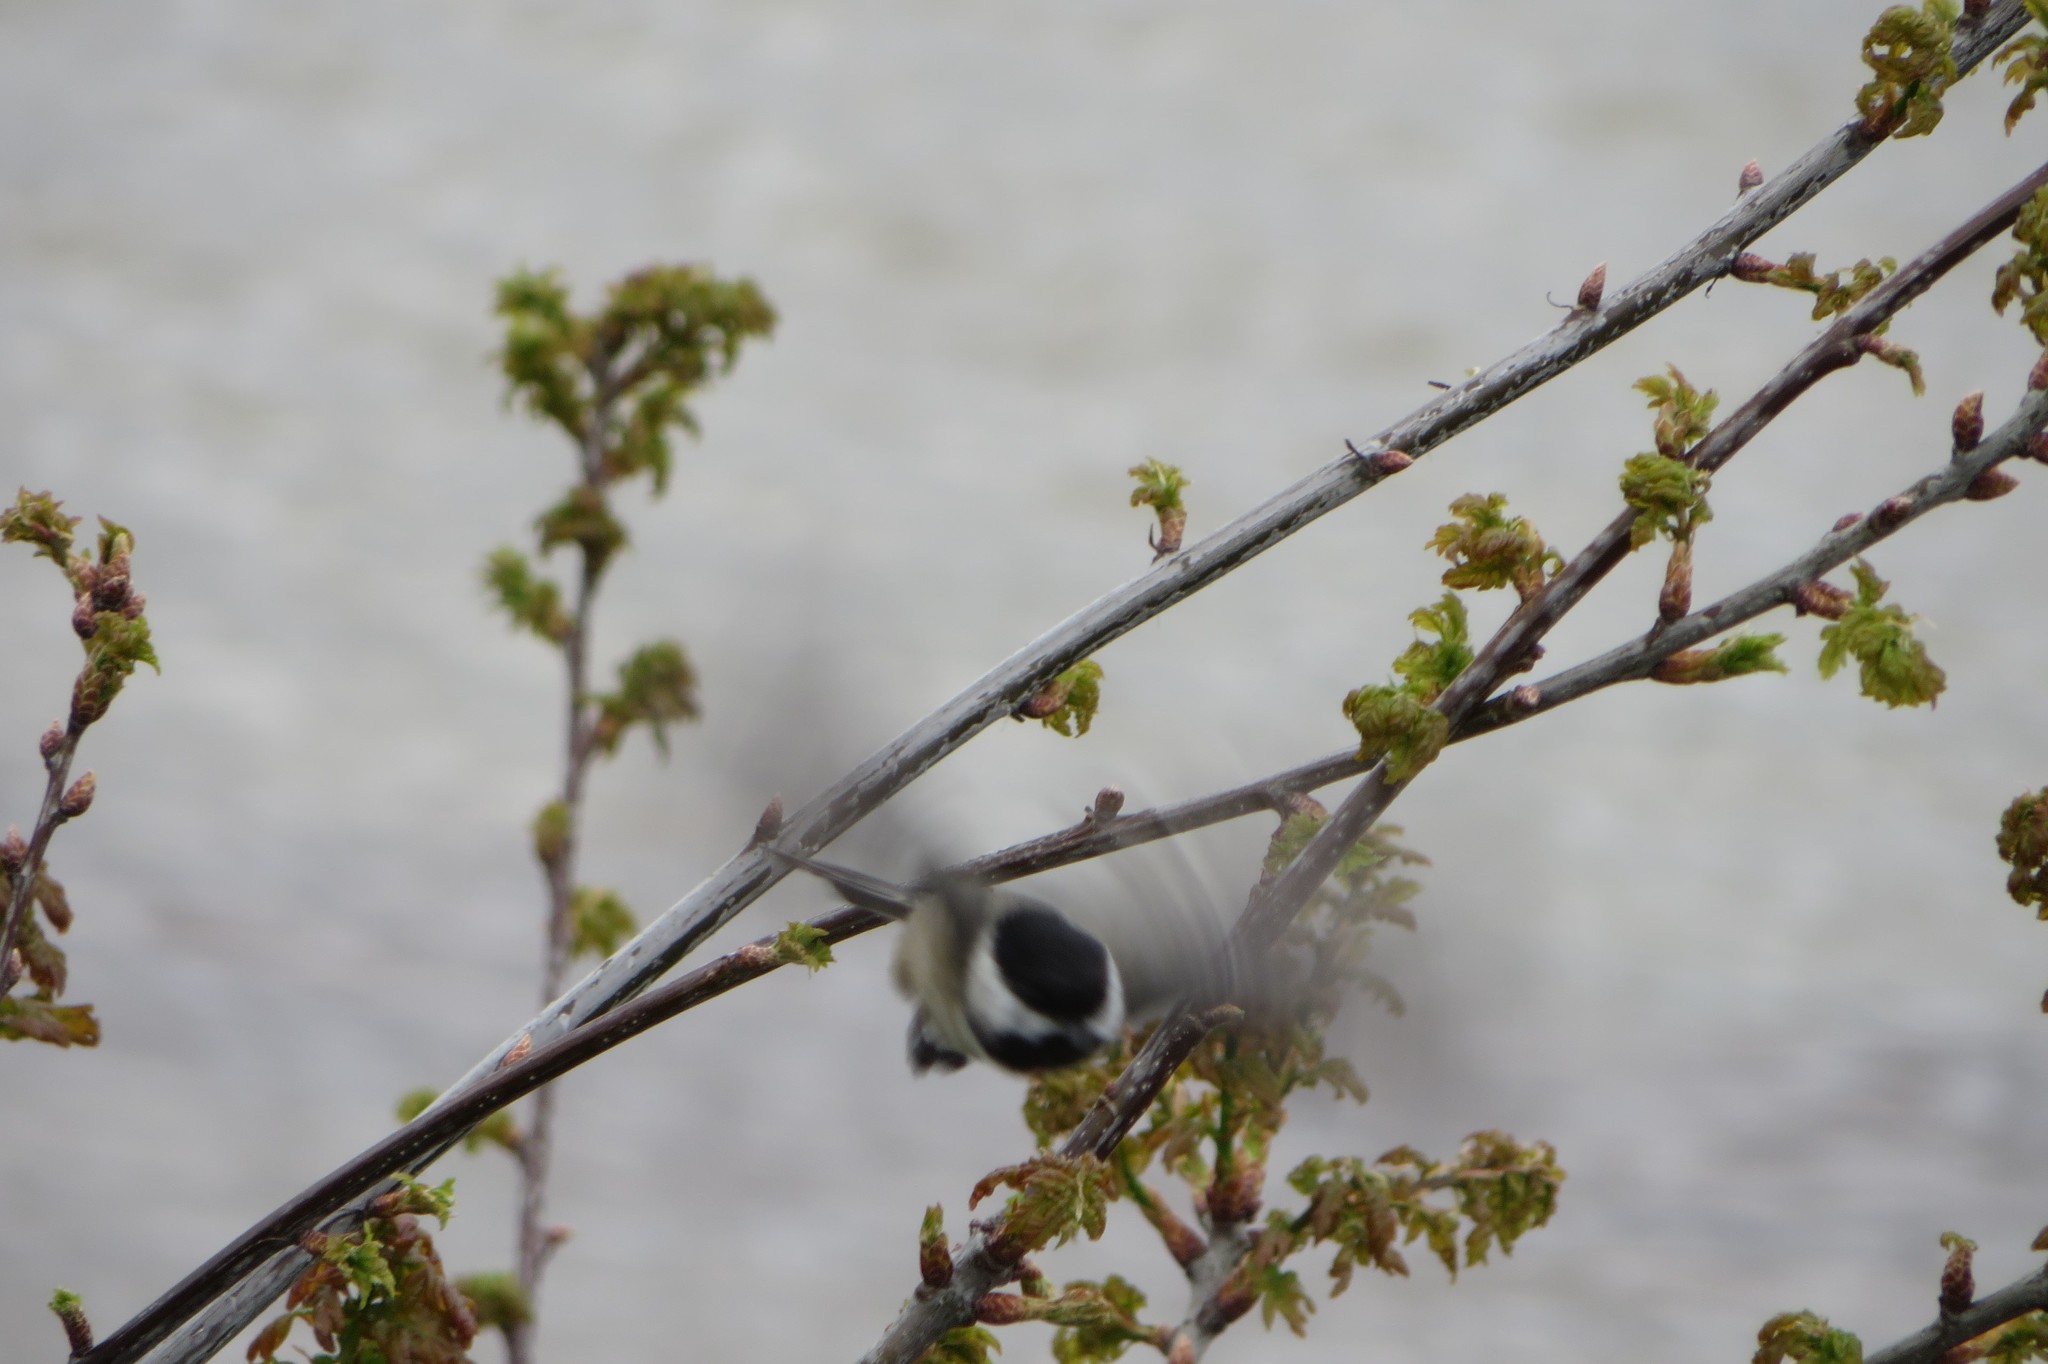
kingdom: Animalia
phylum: Chordata
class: Aves
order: Passeriformes
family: Paridae
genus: Poecile
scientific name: Poecile atricapillus
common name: Black-capped chickadee
